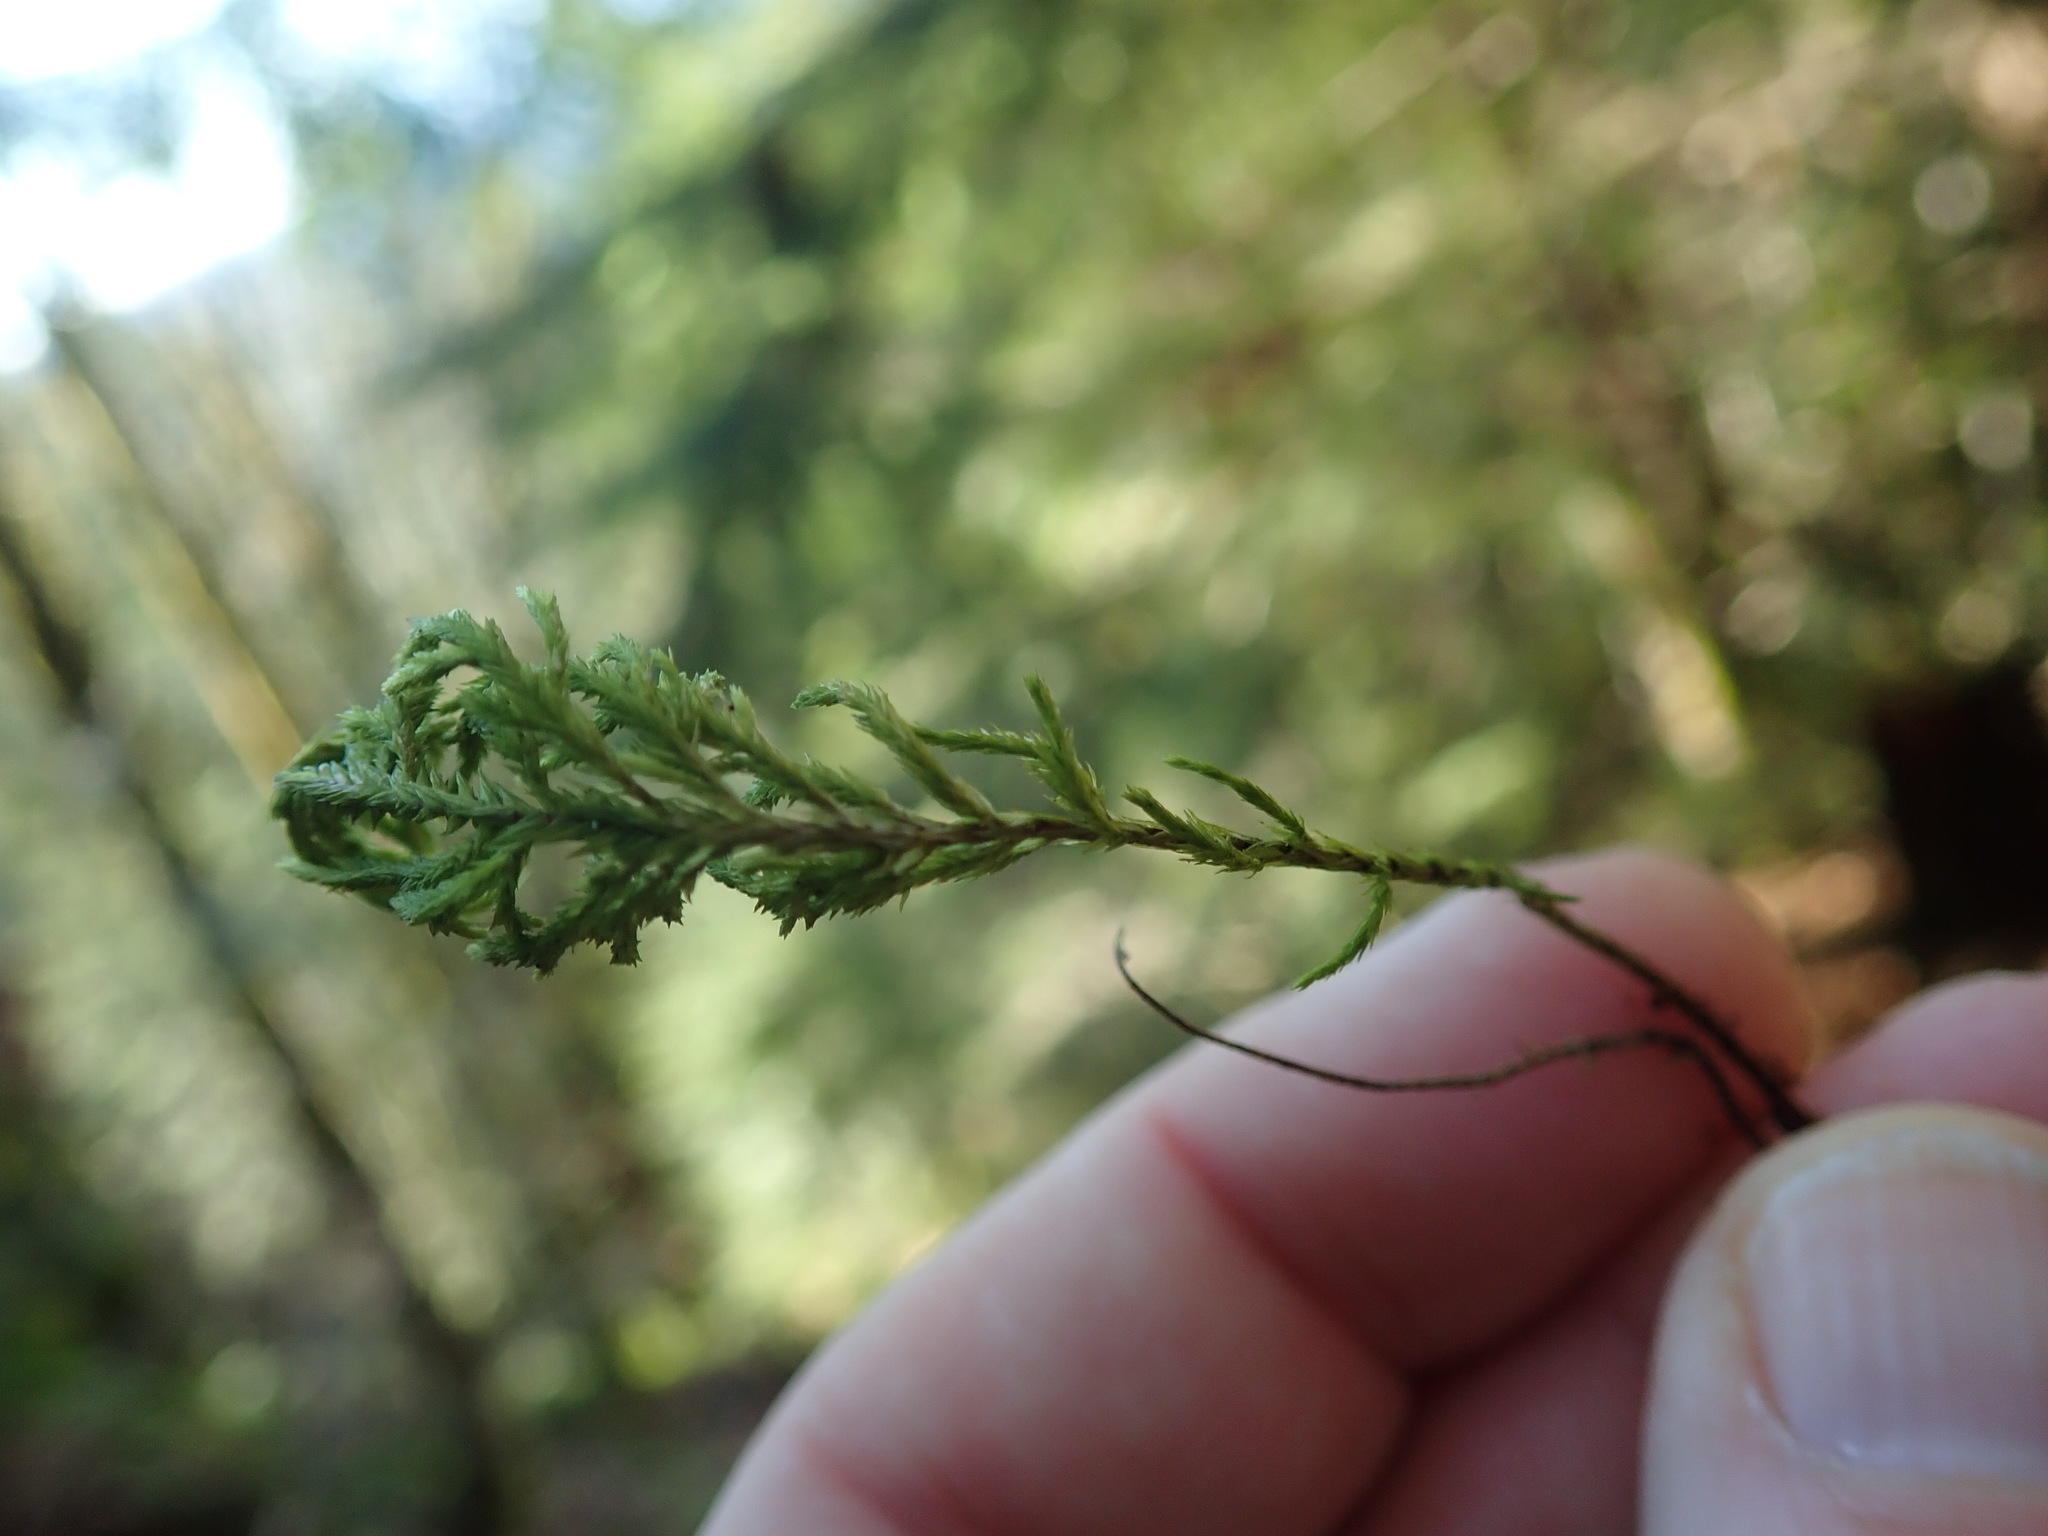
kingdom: Plantae
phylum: Bryophyta
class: Bryopsida
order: Hypnales
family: Cryphaeaceae
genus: Dendroalsia
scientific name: Dendroalsia abietina
